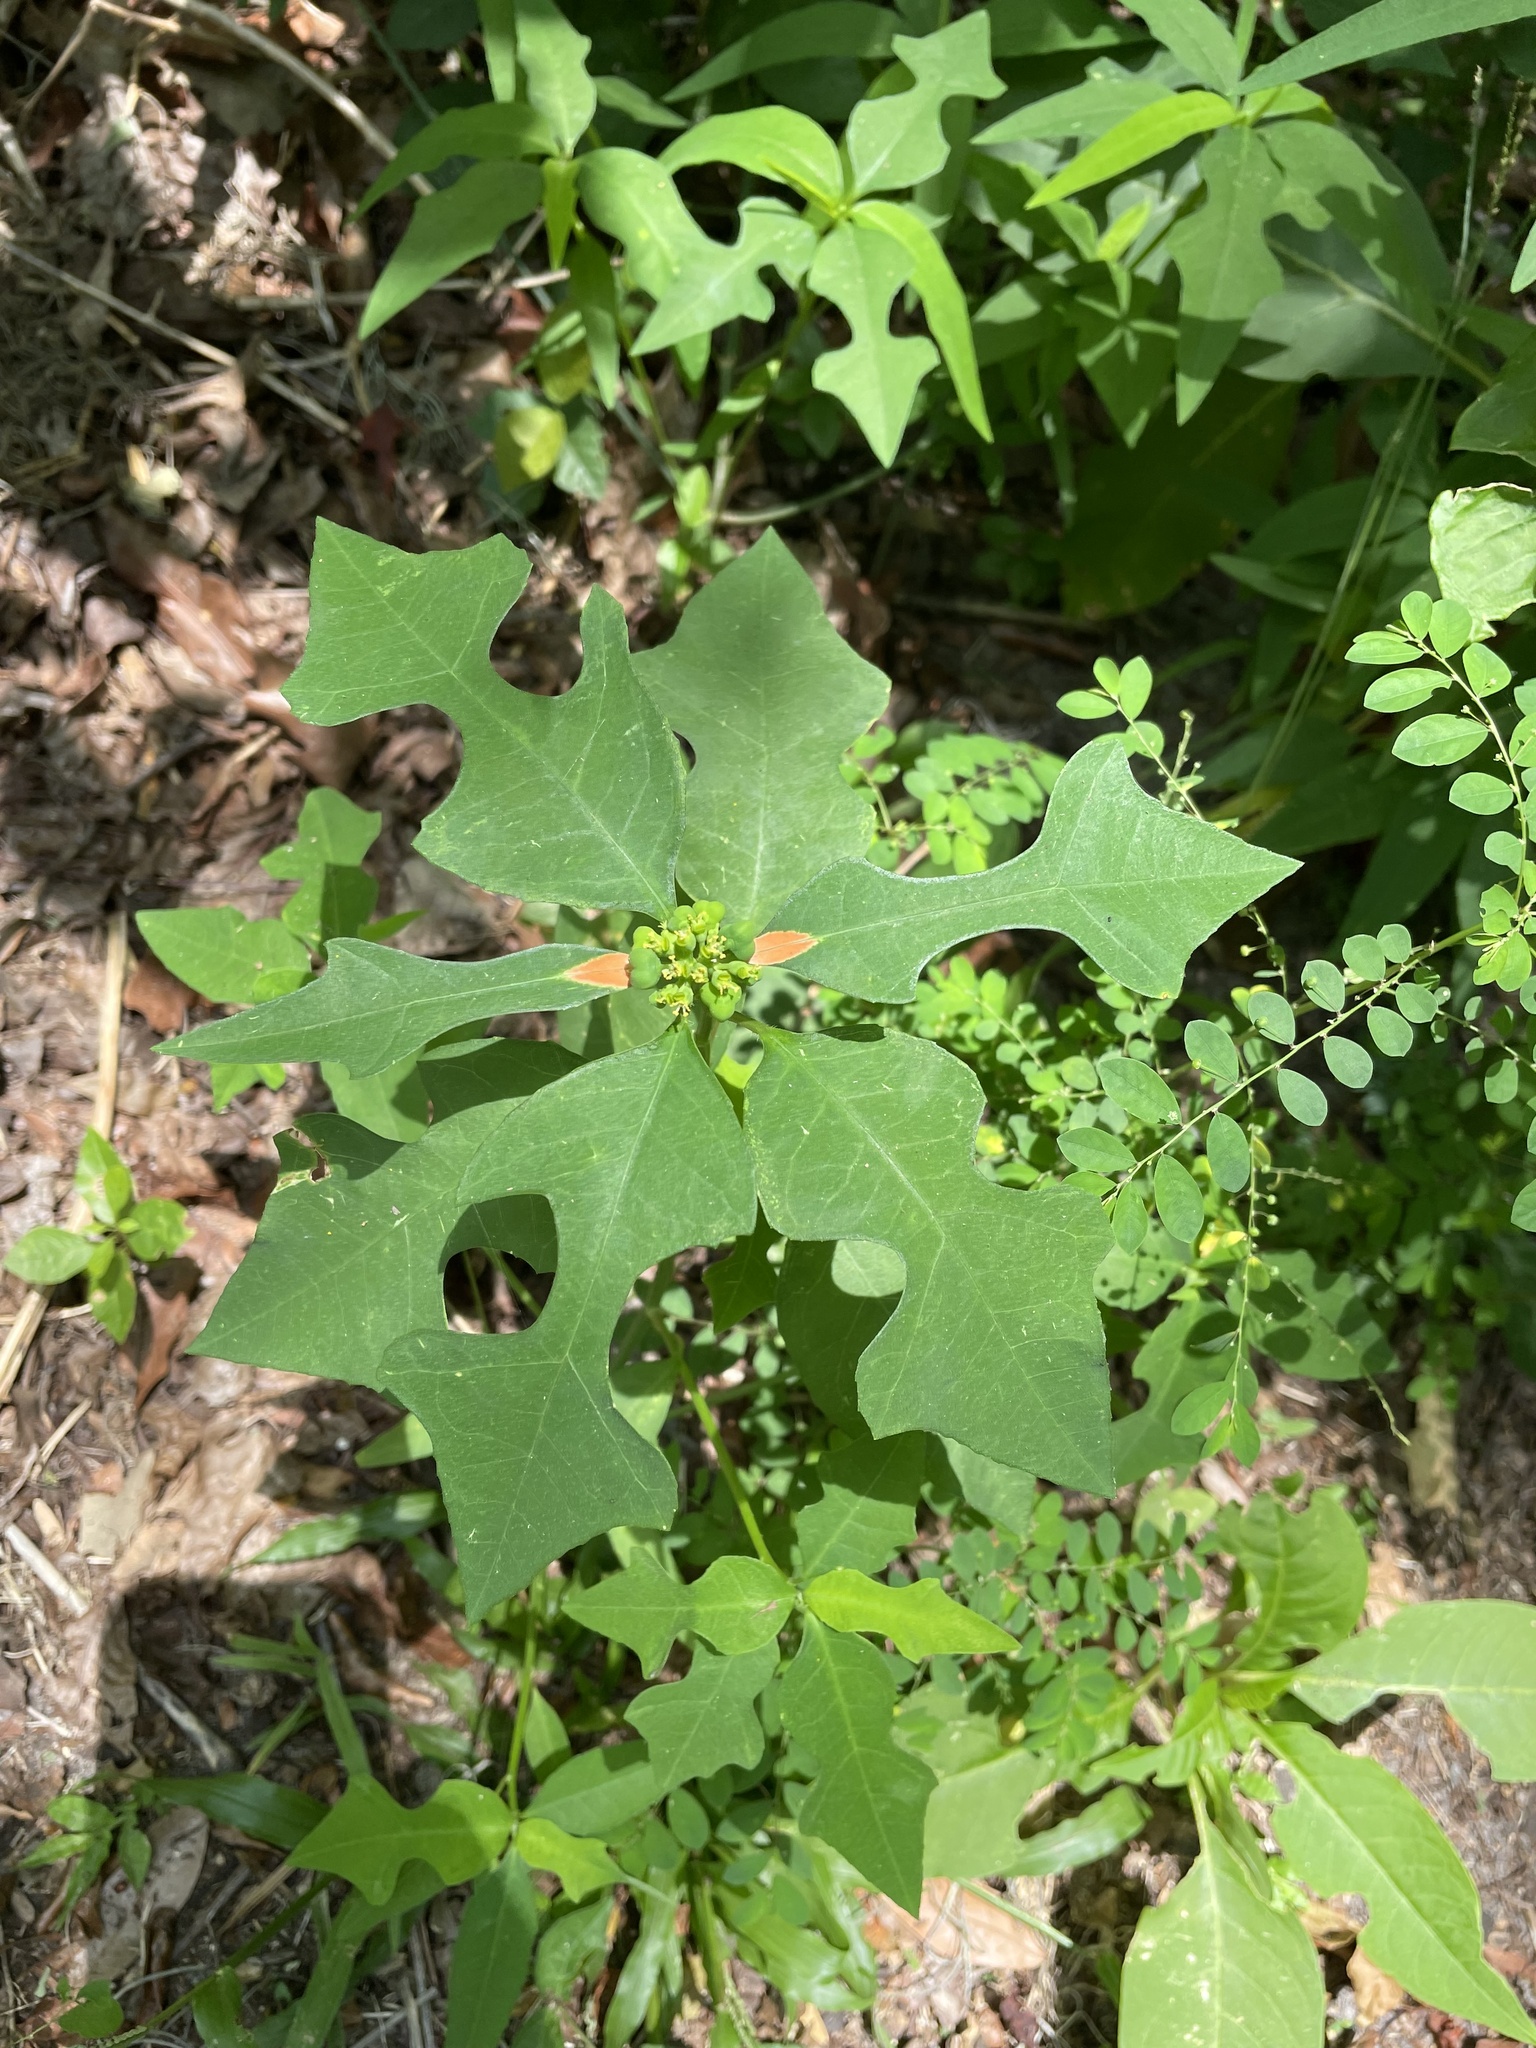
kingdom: Plantae
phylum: Tracheophyta
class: Magnoliopsida
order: Malpighiales
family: Euphorbiaceae
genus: Euphorbia
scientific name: Euphorbia heterophylla
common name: Mexican fireplant
